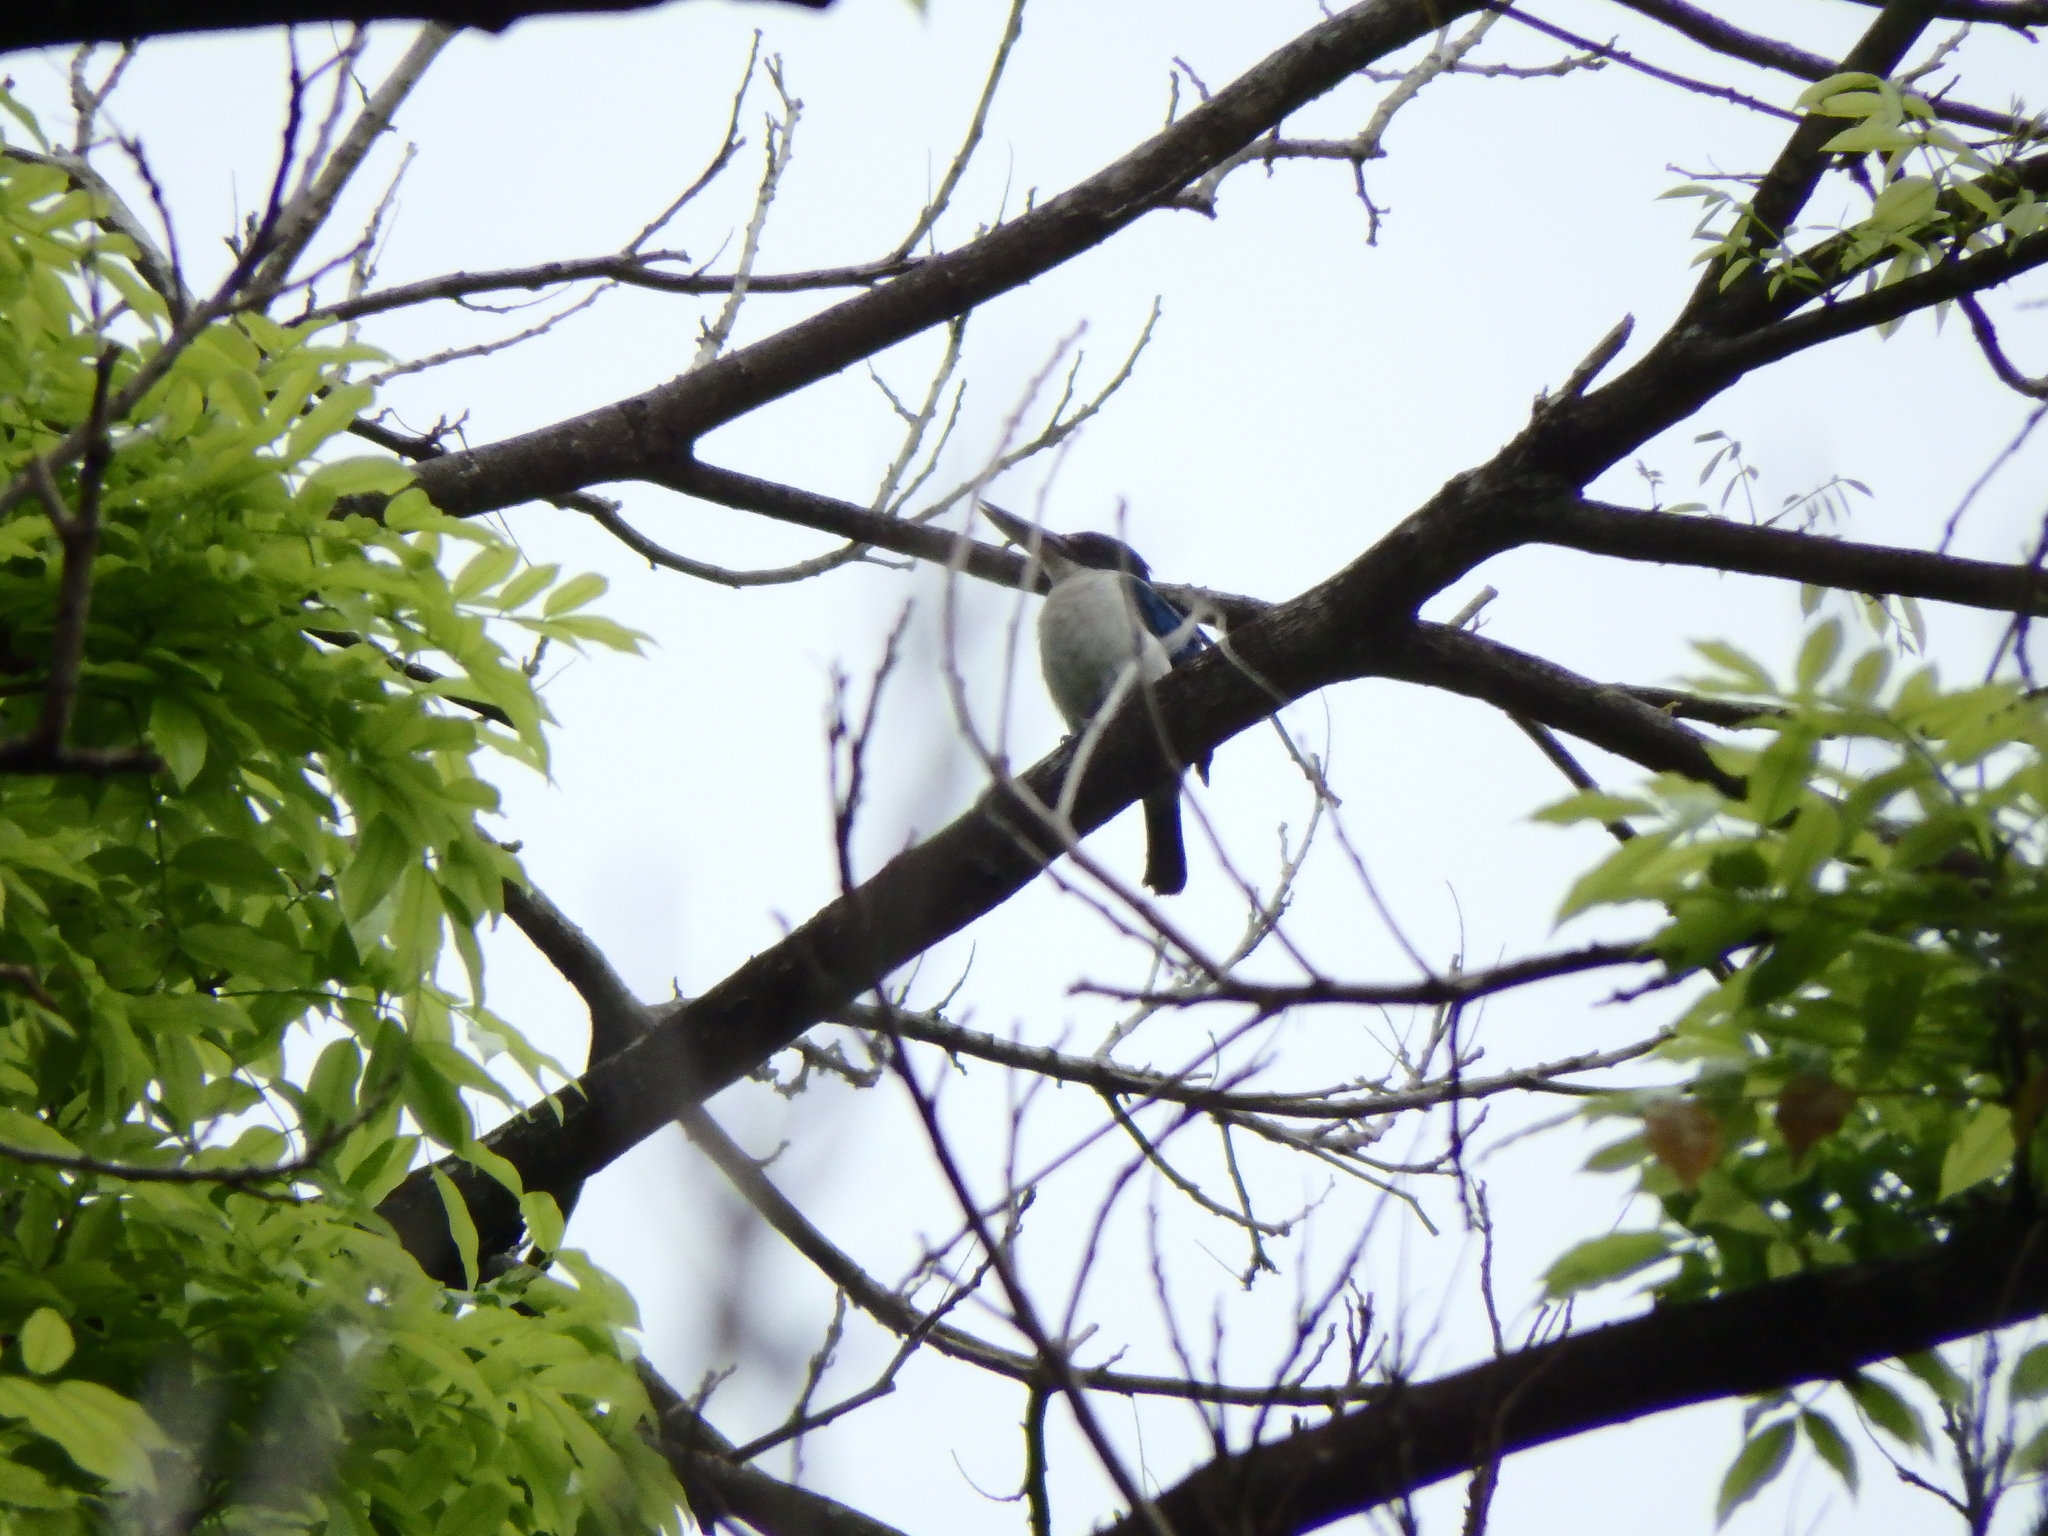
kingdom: Animalia
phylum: Chordata
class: Aves
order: Coraciiformes
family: Alcedinidae
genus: Todiramphus
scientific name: Todiramphus chloris
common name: Collared kingfisher
